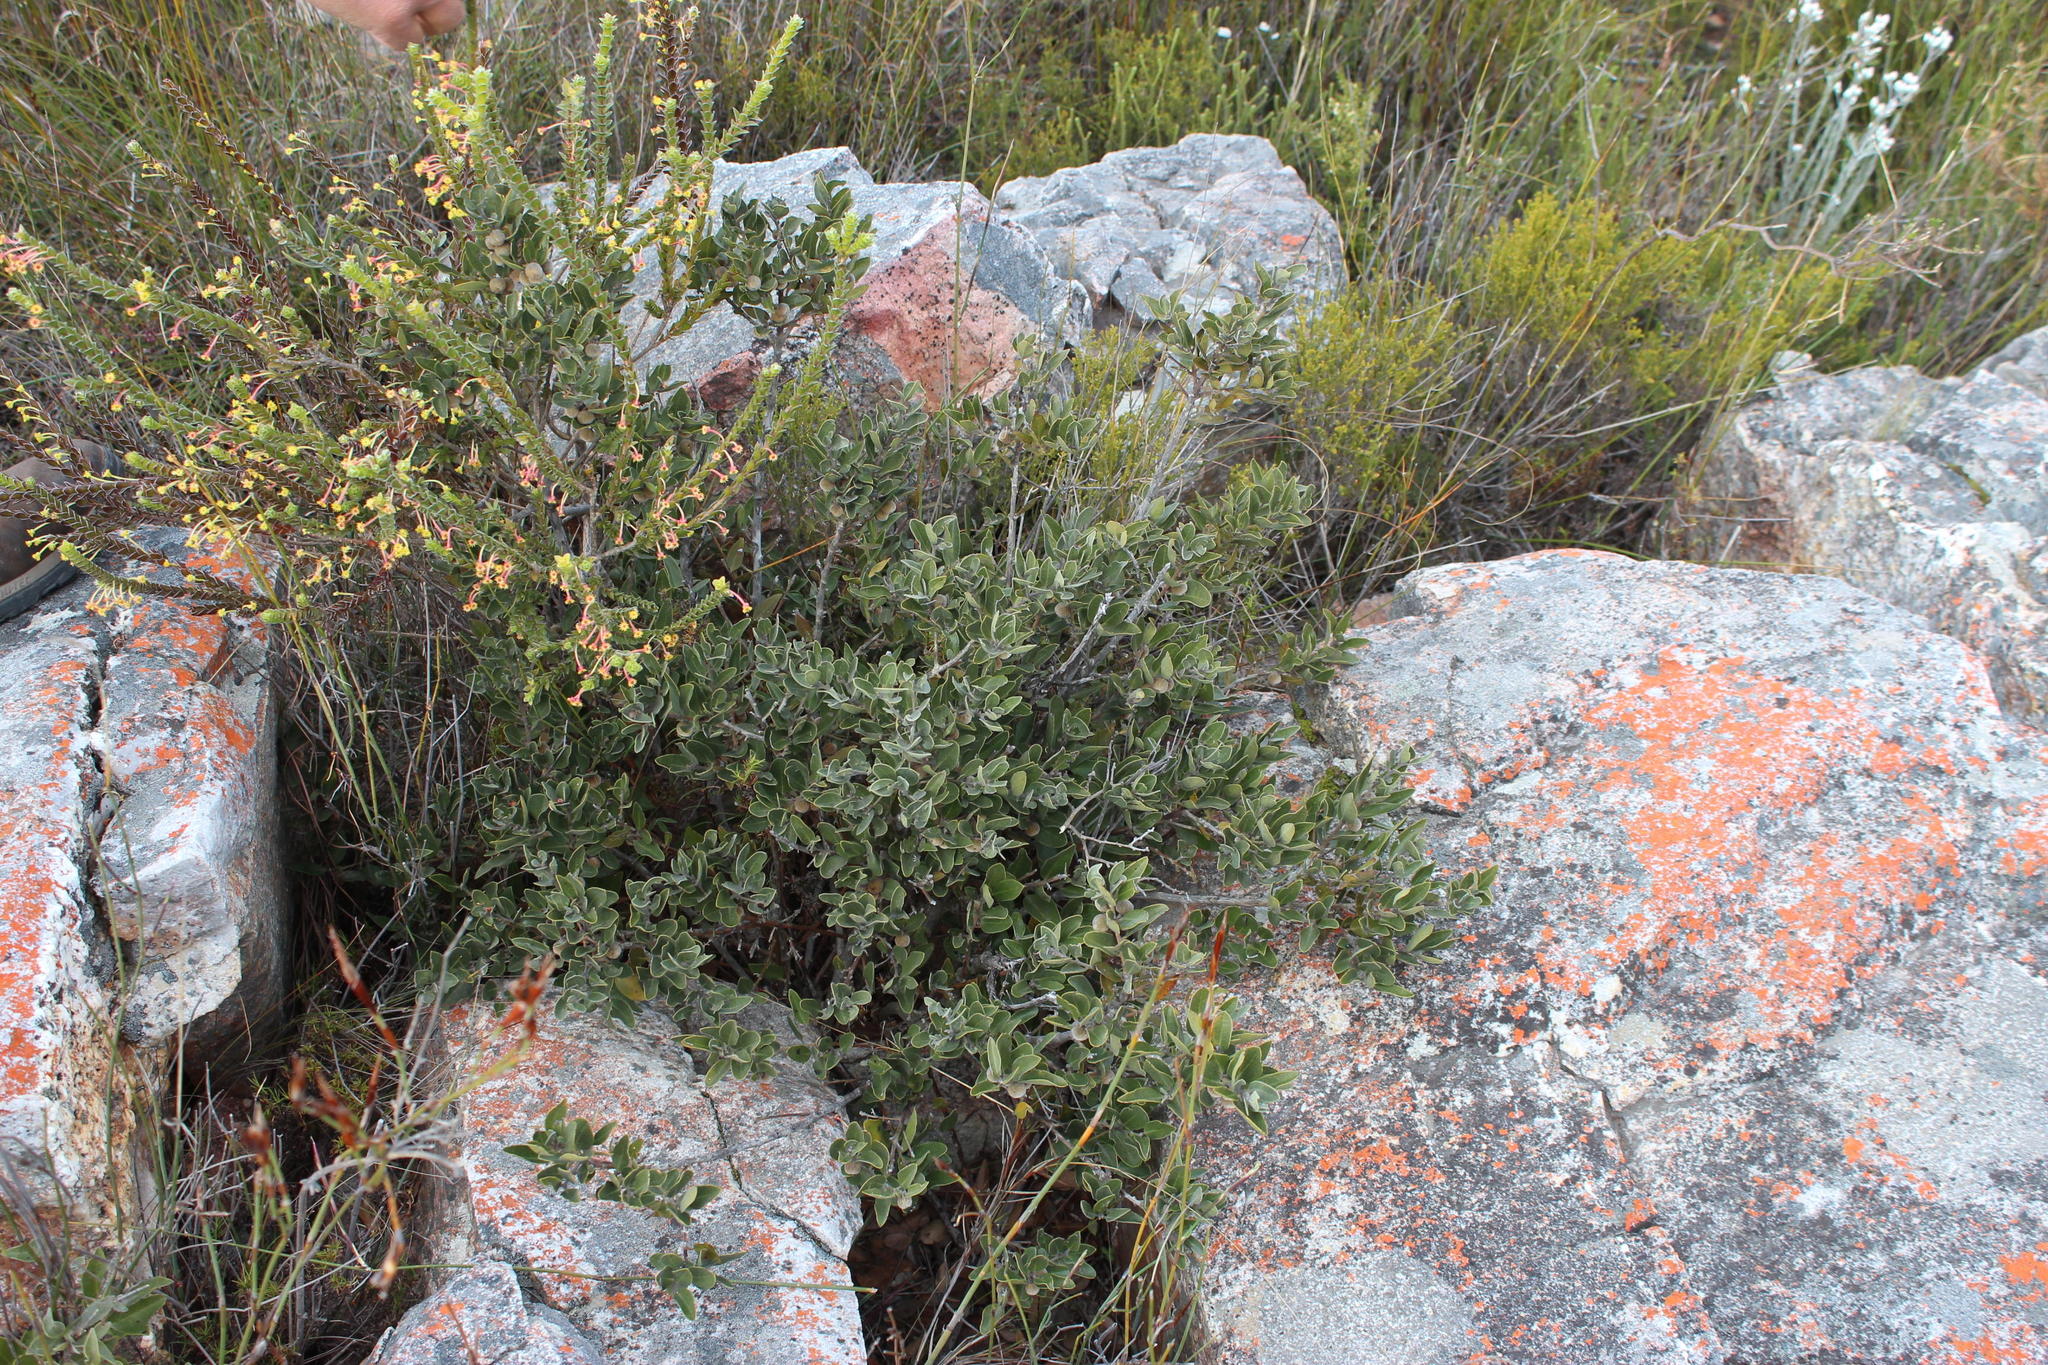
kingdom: Plantae
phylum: Tracheophyta
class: Magnoliopsida
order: Ericales
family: Ebenaceae
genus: Euclea
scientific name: Euclea polyandra
